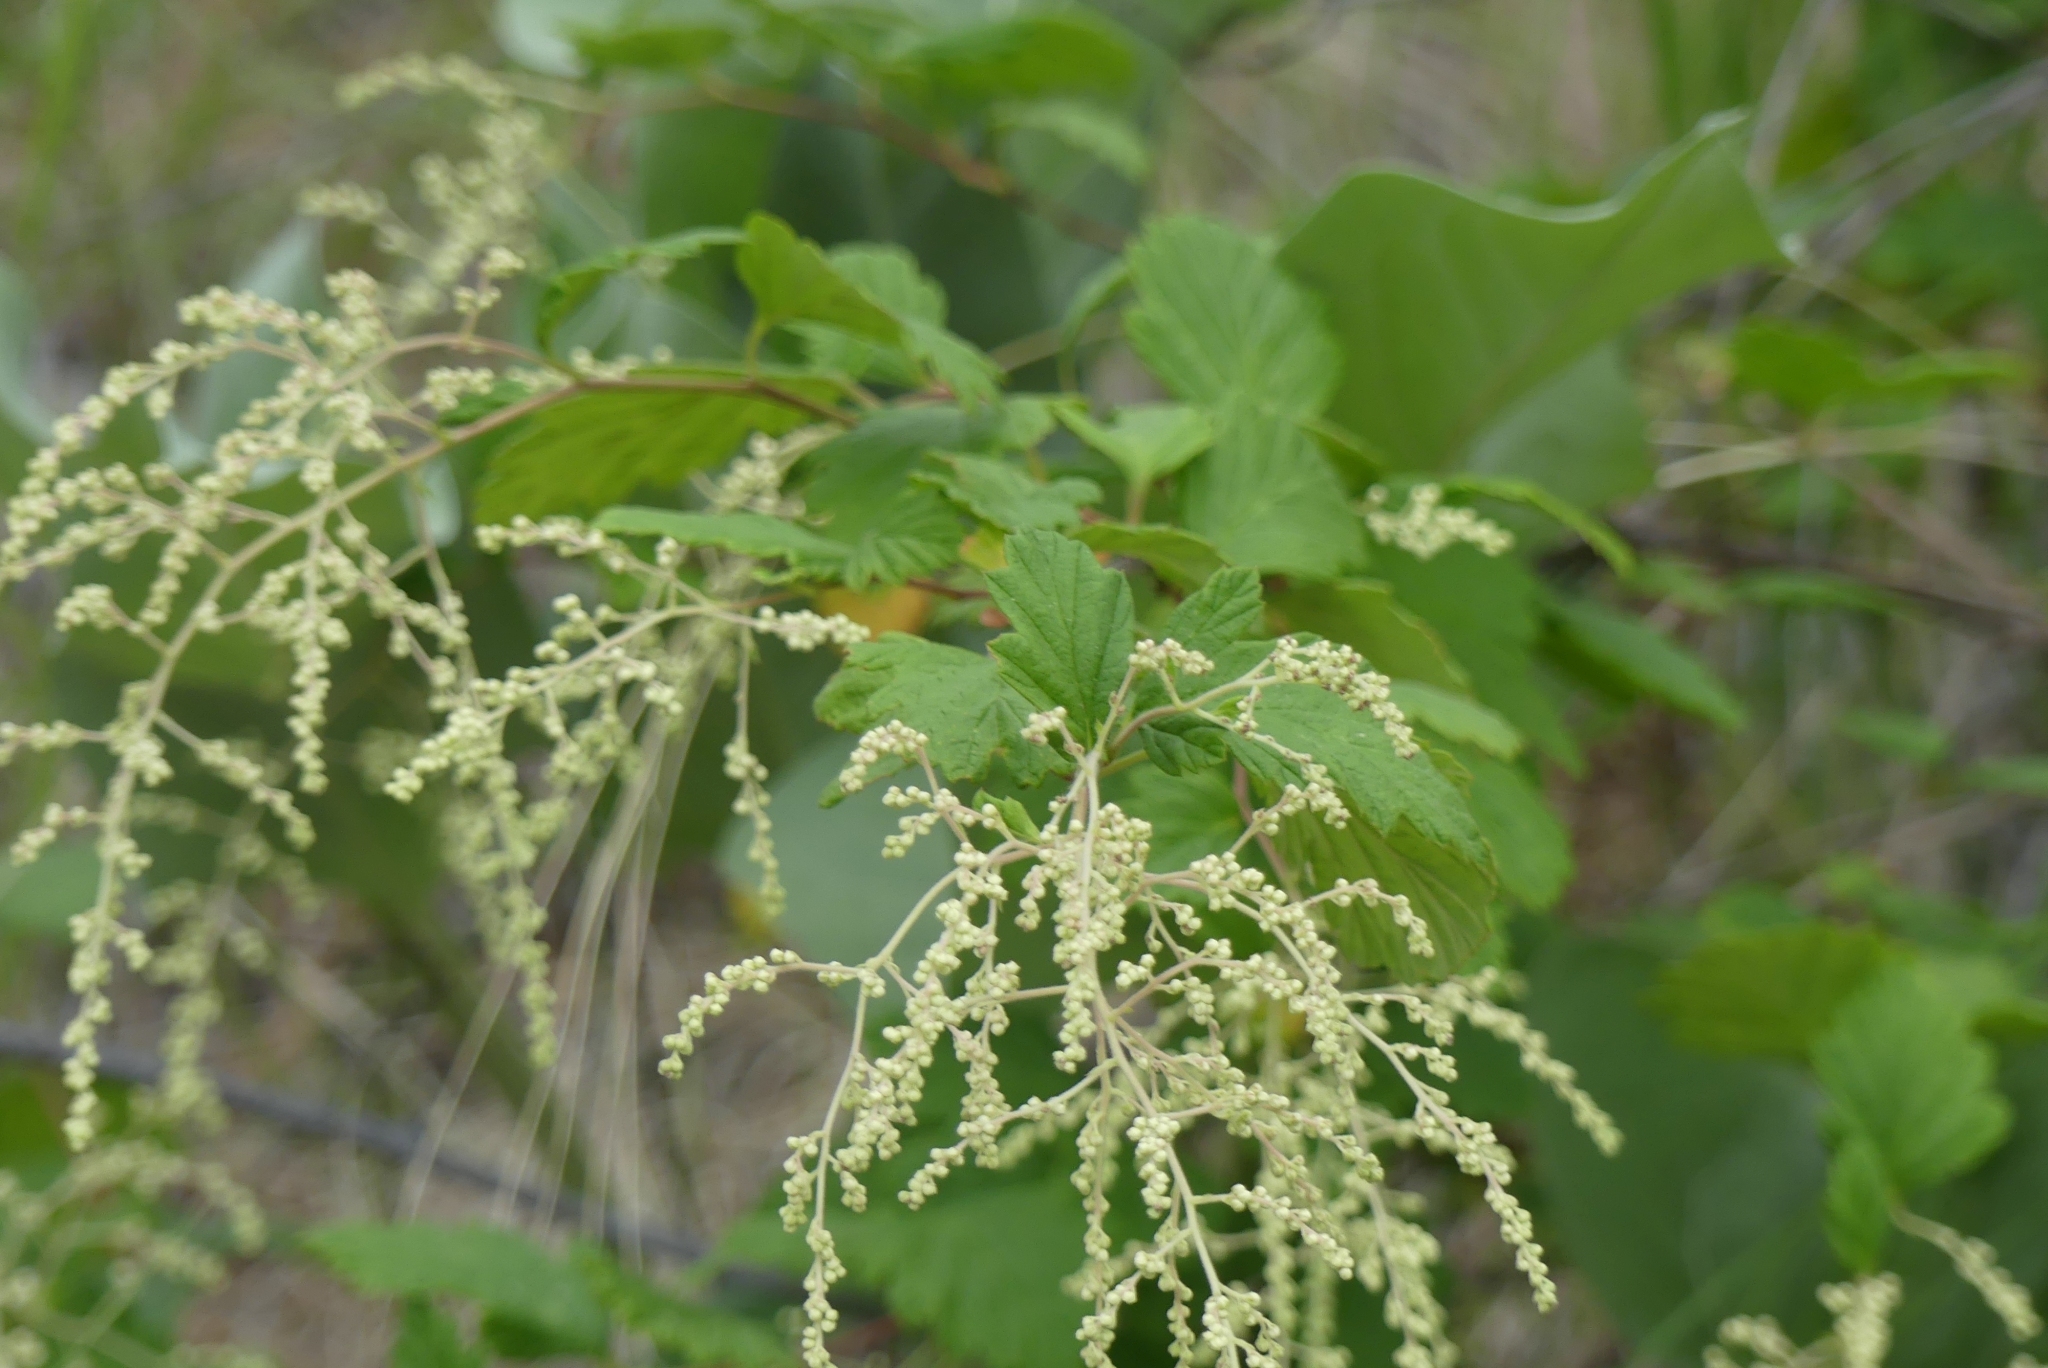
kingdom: Plantae
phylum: Tracheophyta
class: Magnoliopsida
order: Rosales
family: Rosaceae
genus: Holodiscus
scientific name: Holodiscus discolor
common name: Oceanspray
